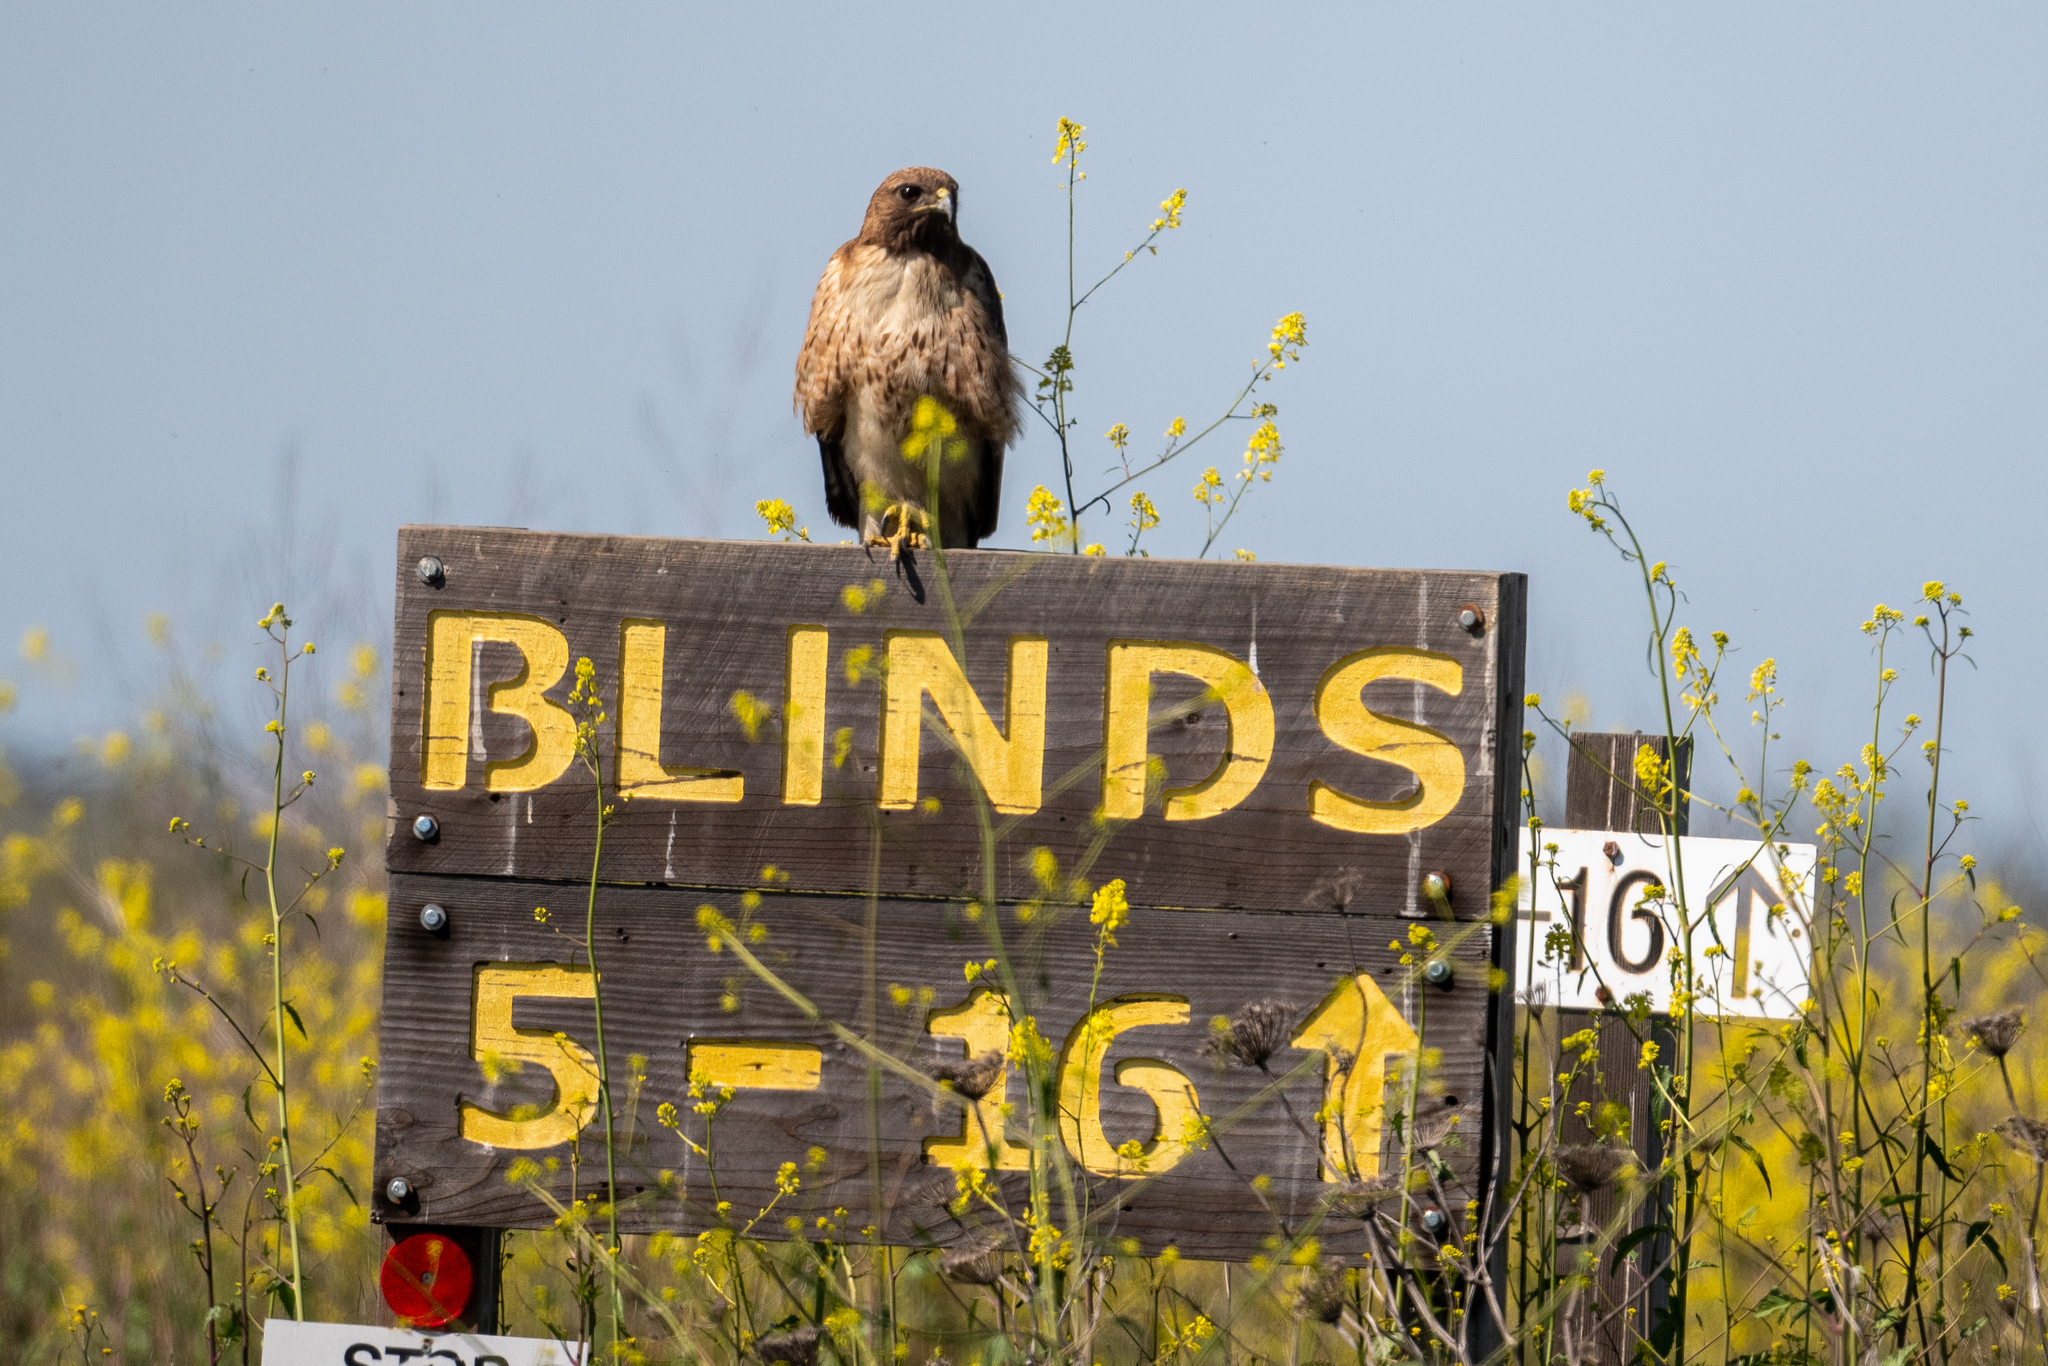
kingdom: Animalia
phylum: Chordata
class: Aves
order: Accipitriformes
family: Accipitridae
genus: Buteo
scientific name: Buteo jamaicensis
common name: Red-tailed hawk
